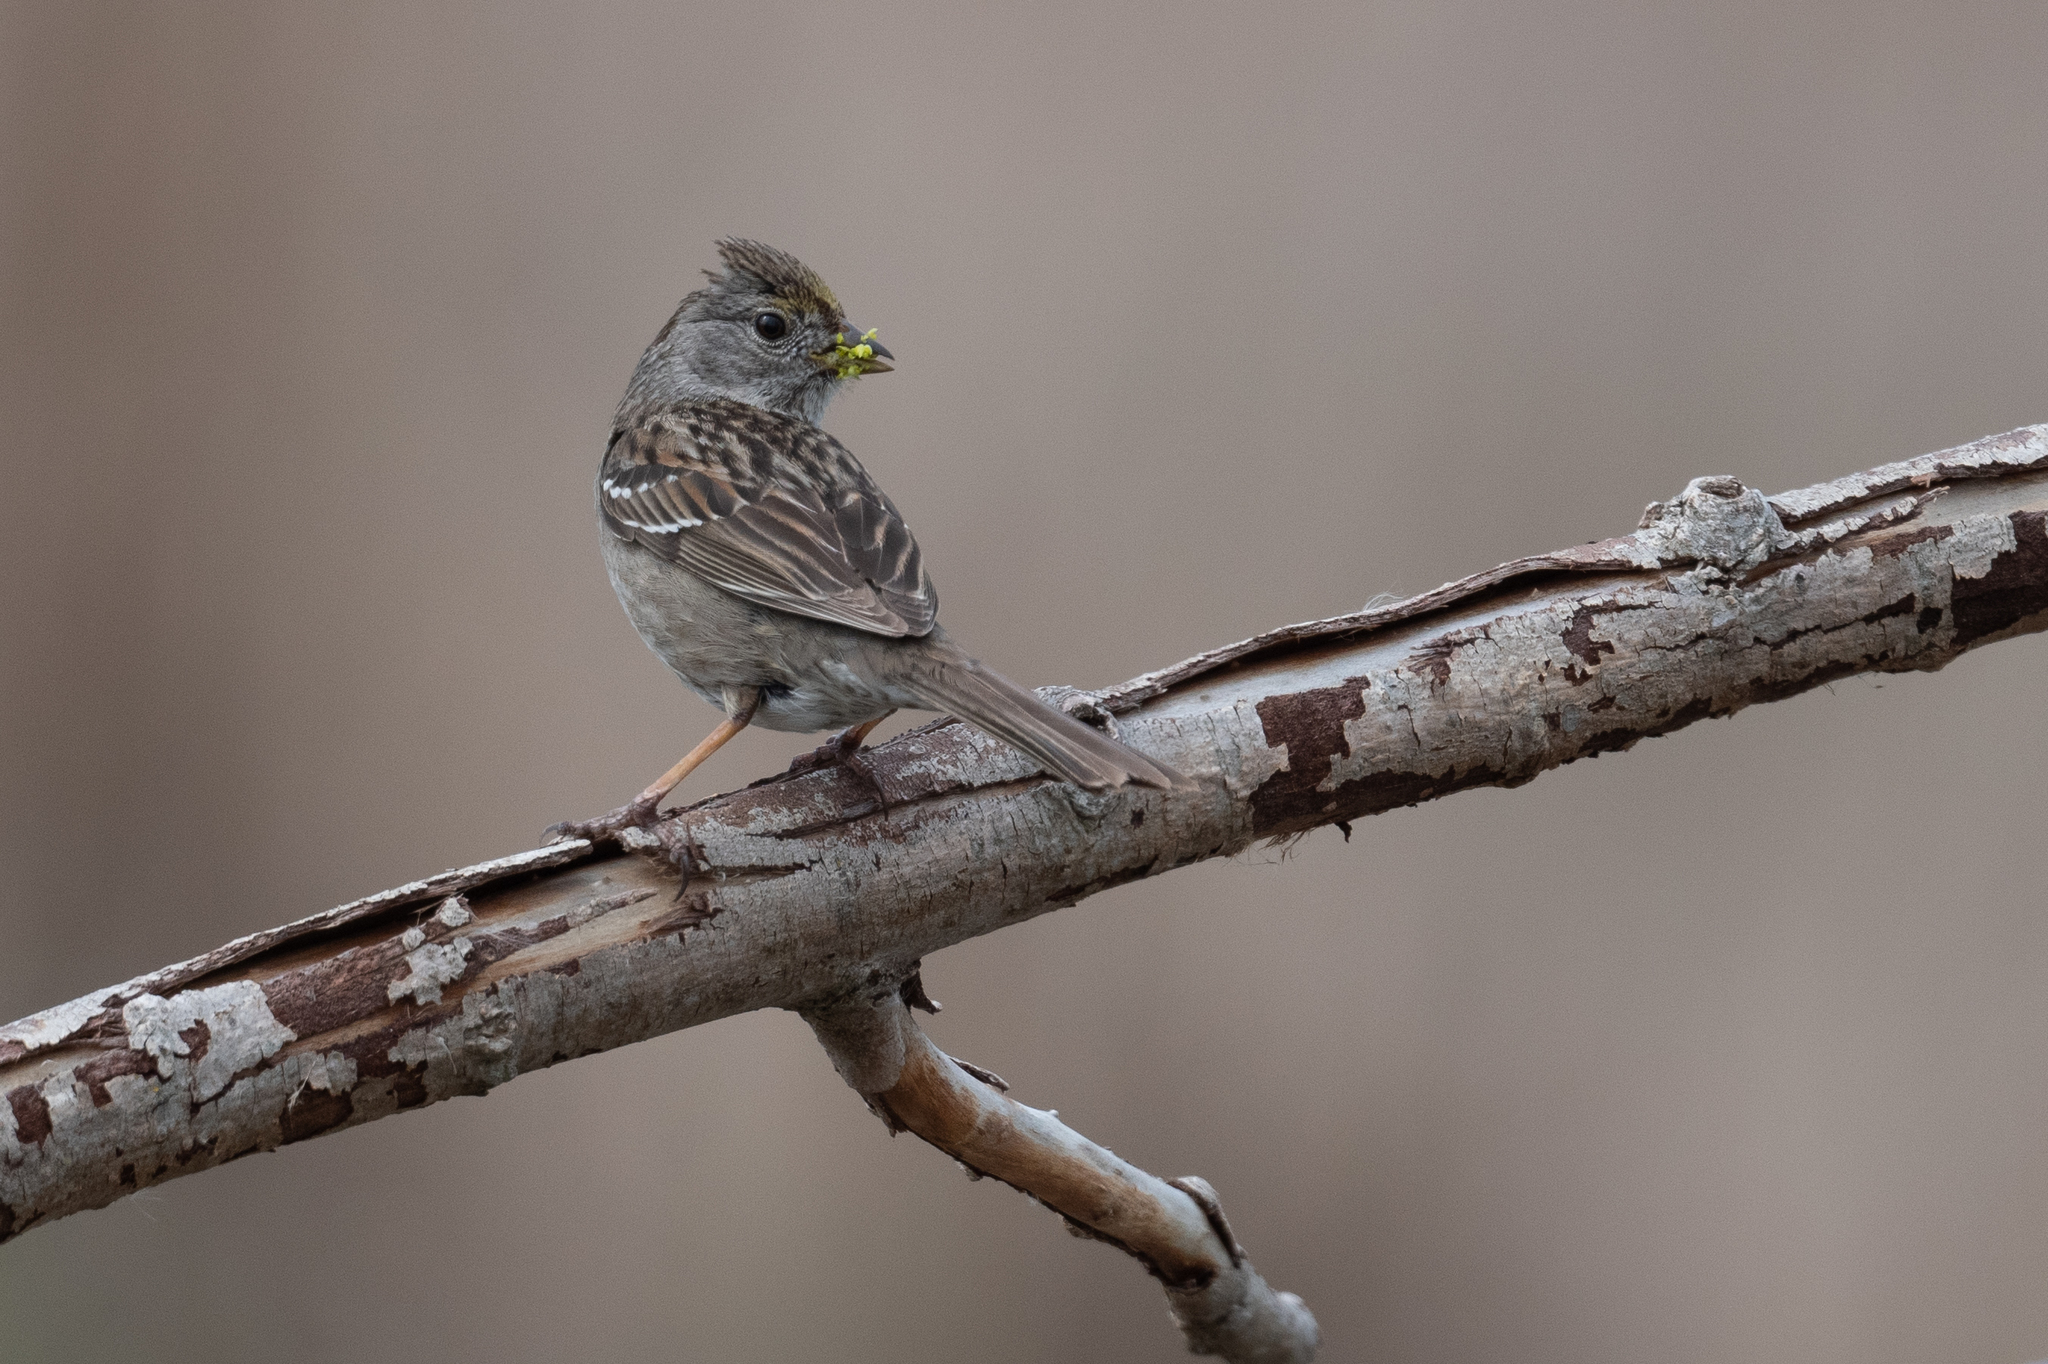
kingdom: Animalia
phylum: Chordata
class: Aves
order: Passeriformes
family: Passerellidae
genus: Zonotrichia
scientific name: Zonotrichia atricapilla
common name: Golden-crowned sparrow
